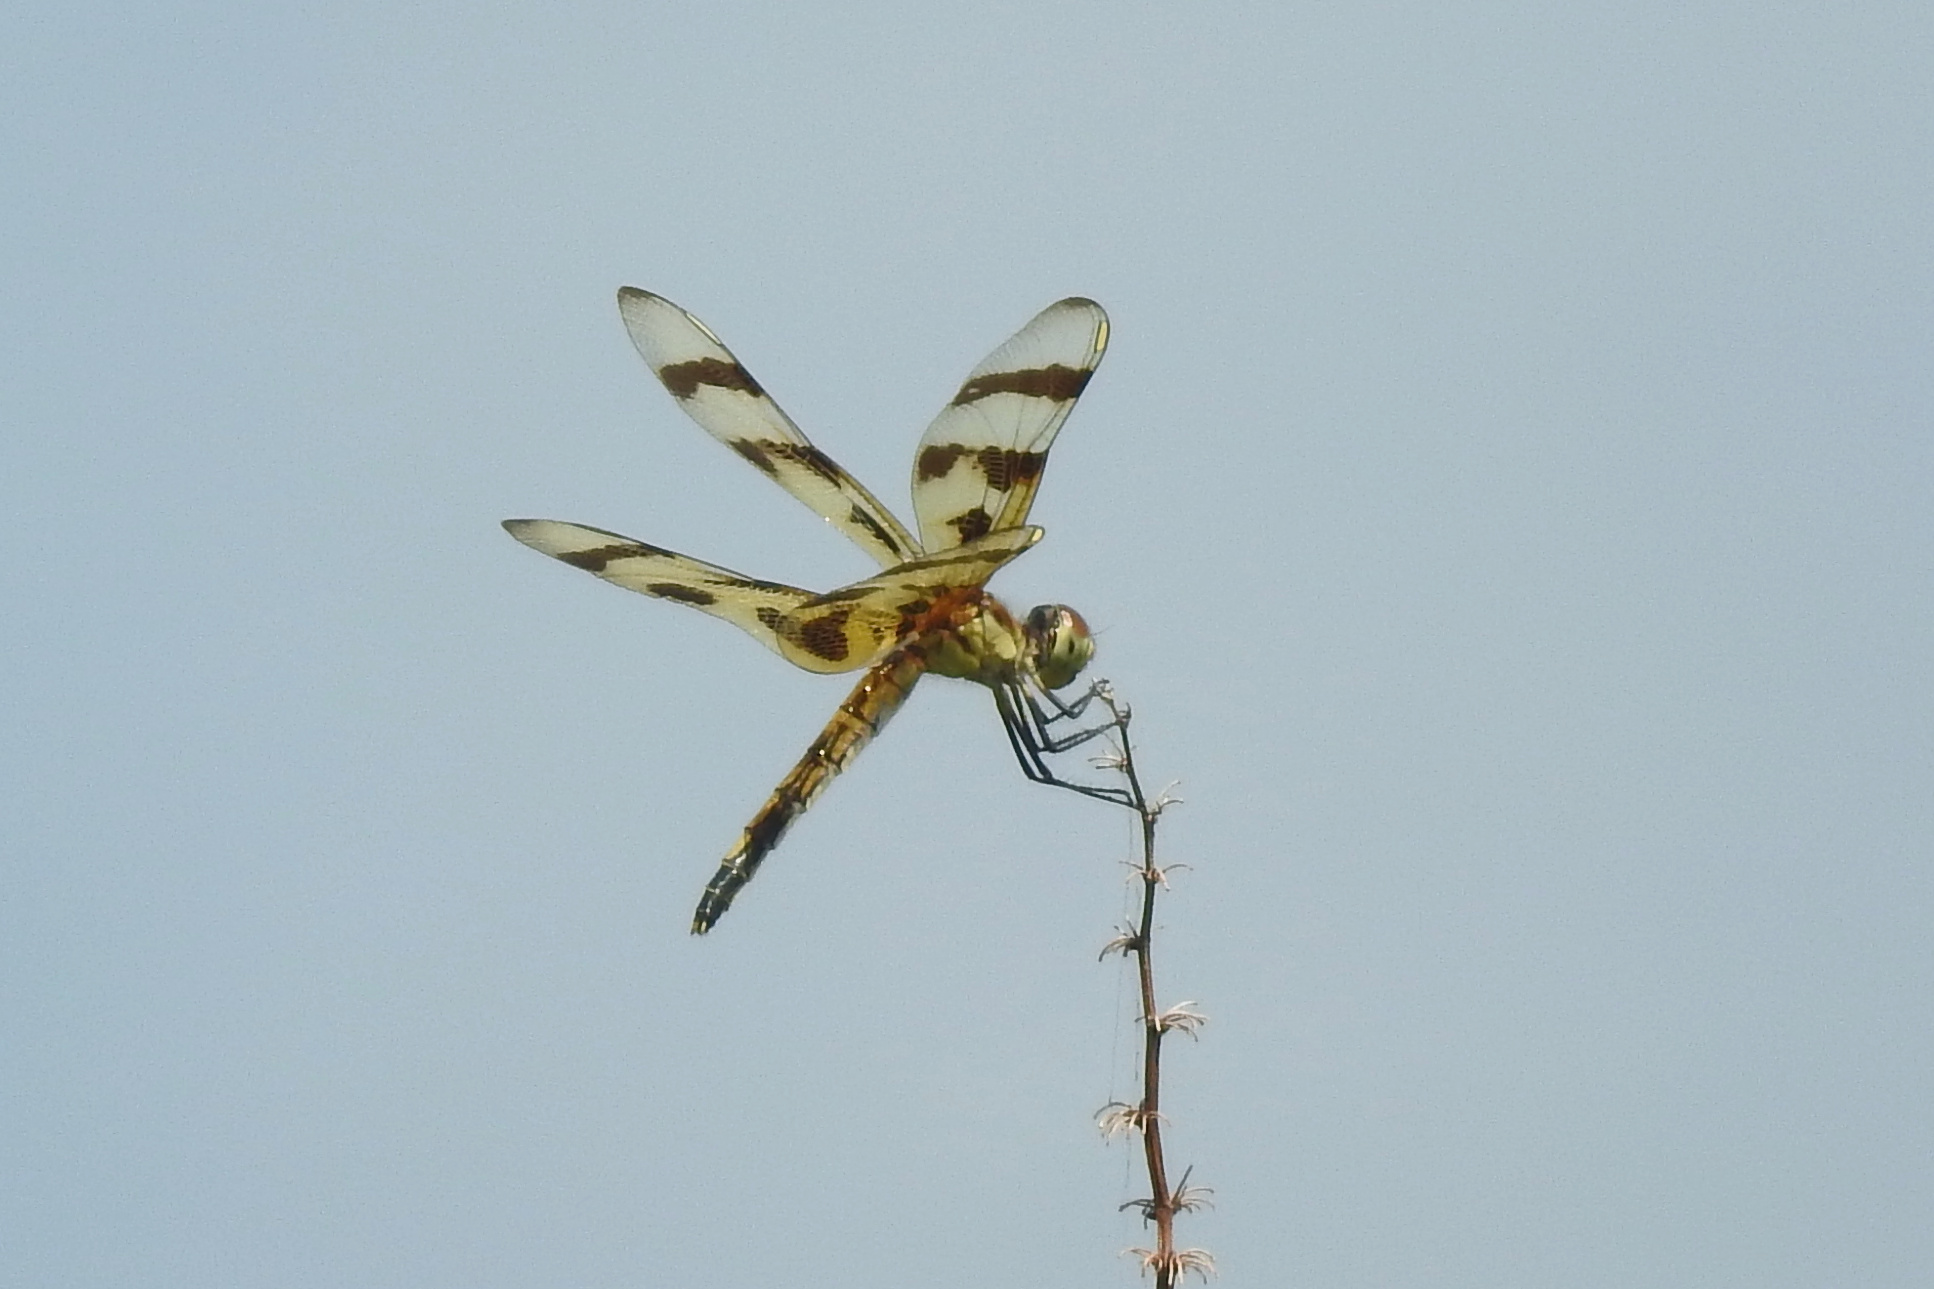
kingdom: Animalia
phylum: Arthropoda
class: Insecta
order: Odonata
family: Libellulidae
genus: Celithemis
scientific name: Celithemis eponina
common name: Halloween pennant
